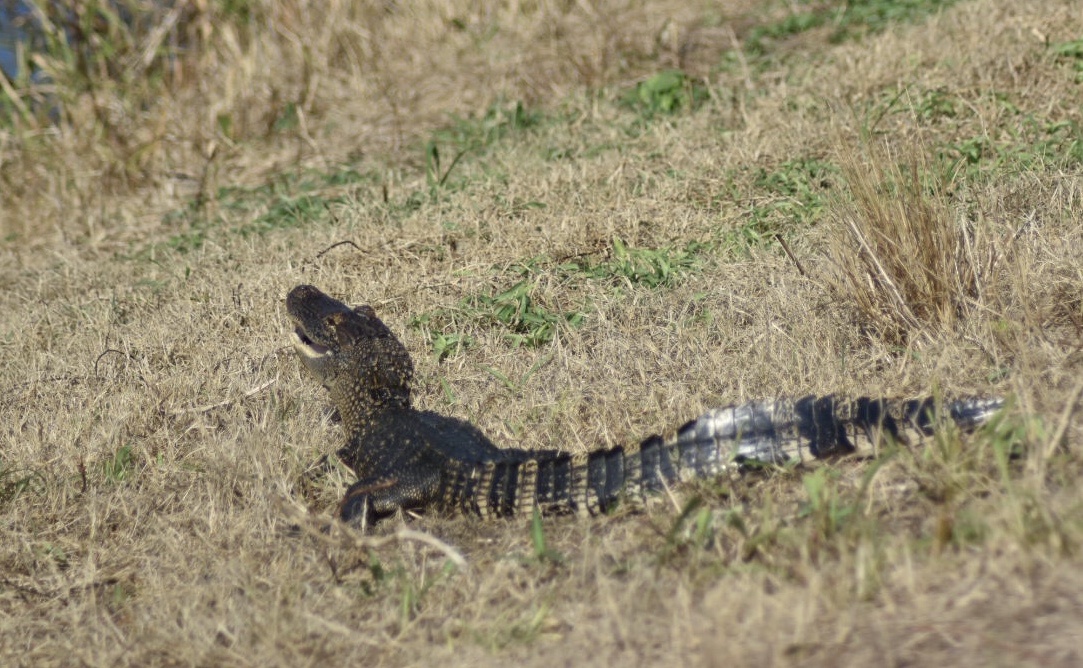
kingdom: Animalia
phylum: Chordata
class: Crocodylia
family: Alligatoridae
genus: Alligator
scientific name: Alligator mississippiensis
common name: American alligator
